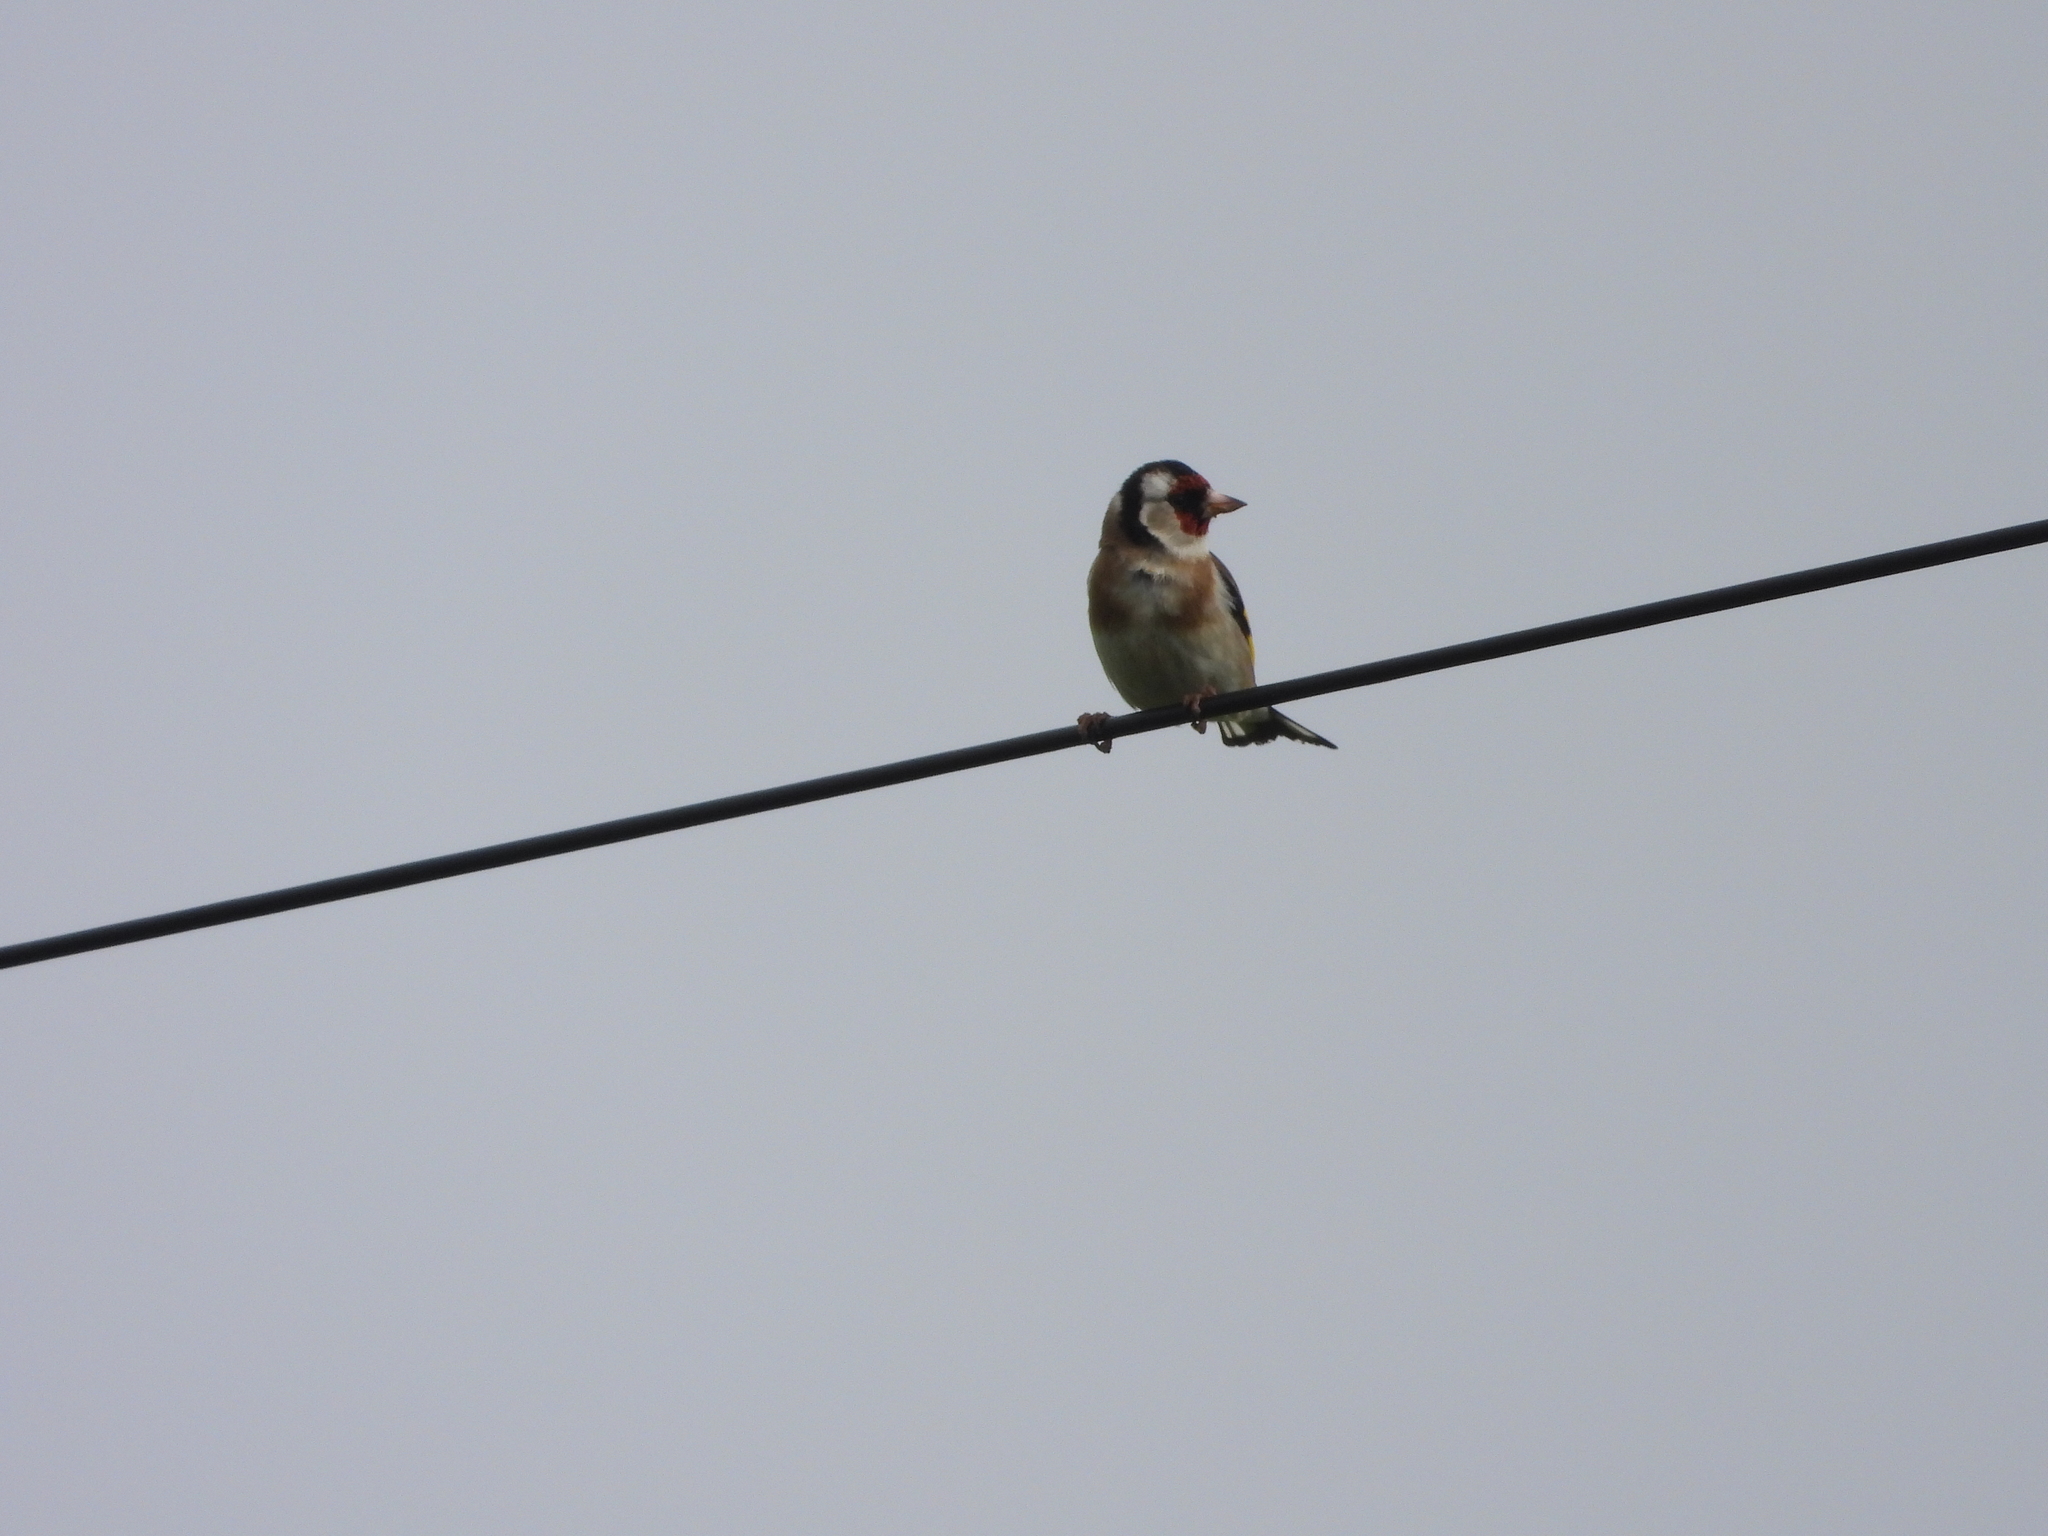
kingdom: Animalia
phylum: Chordata
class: Aves
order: Passeriformes
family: Fringillidae
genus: Carduelis
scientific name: Carduelis carduelis
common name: European goldfinch
